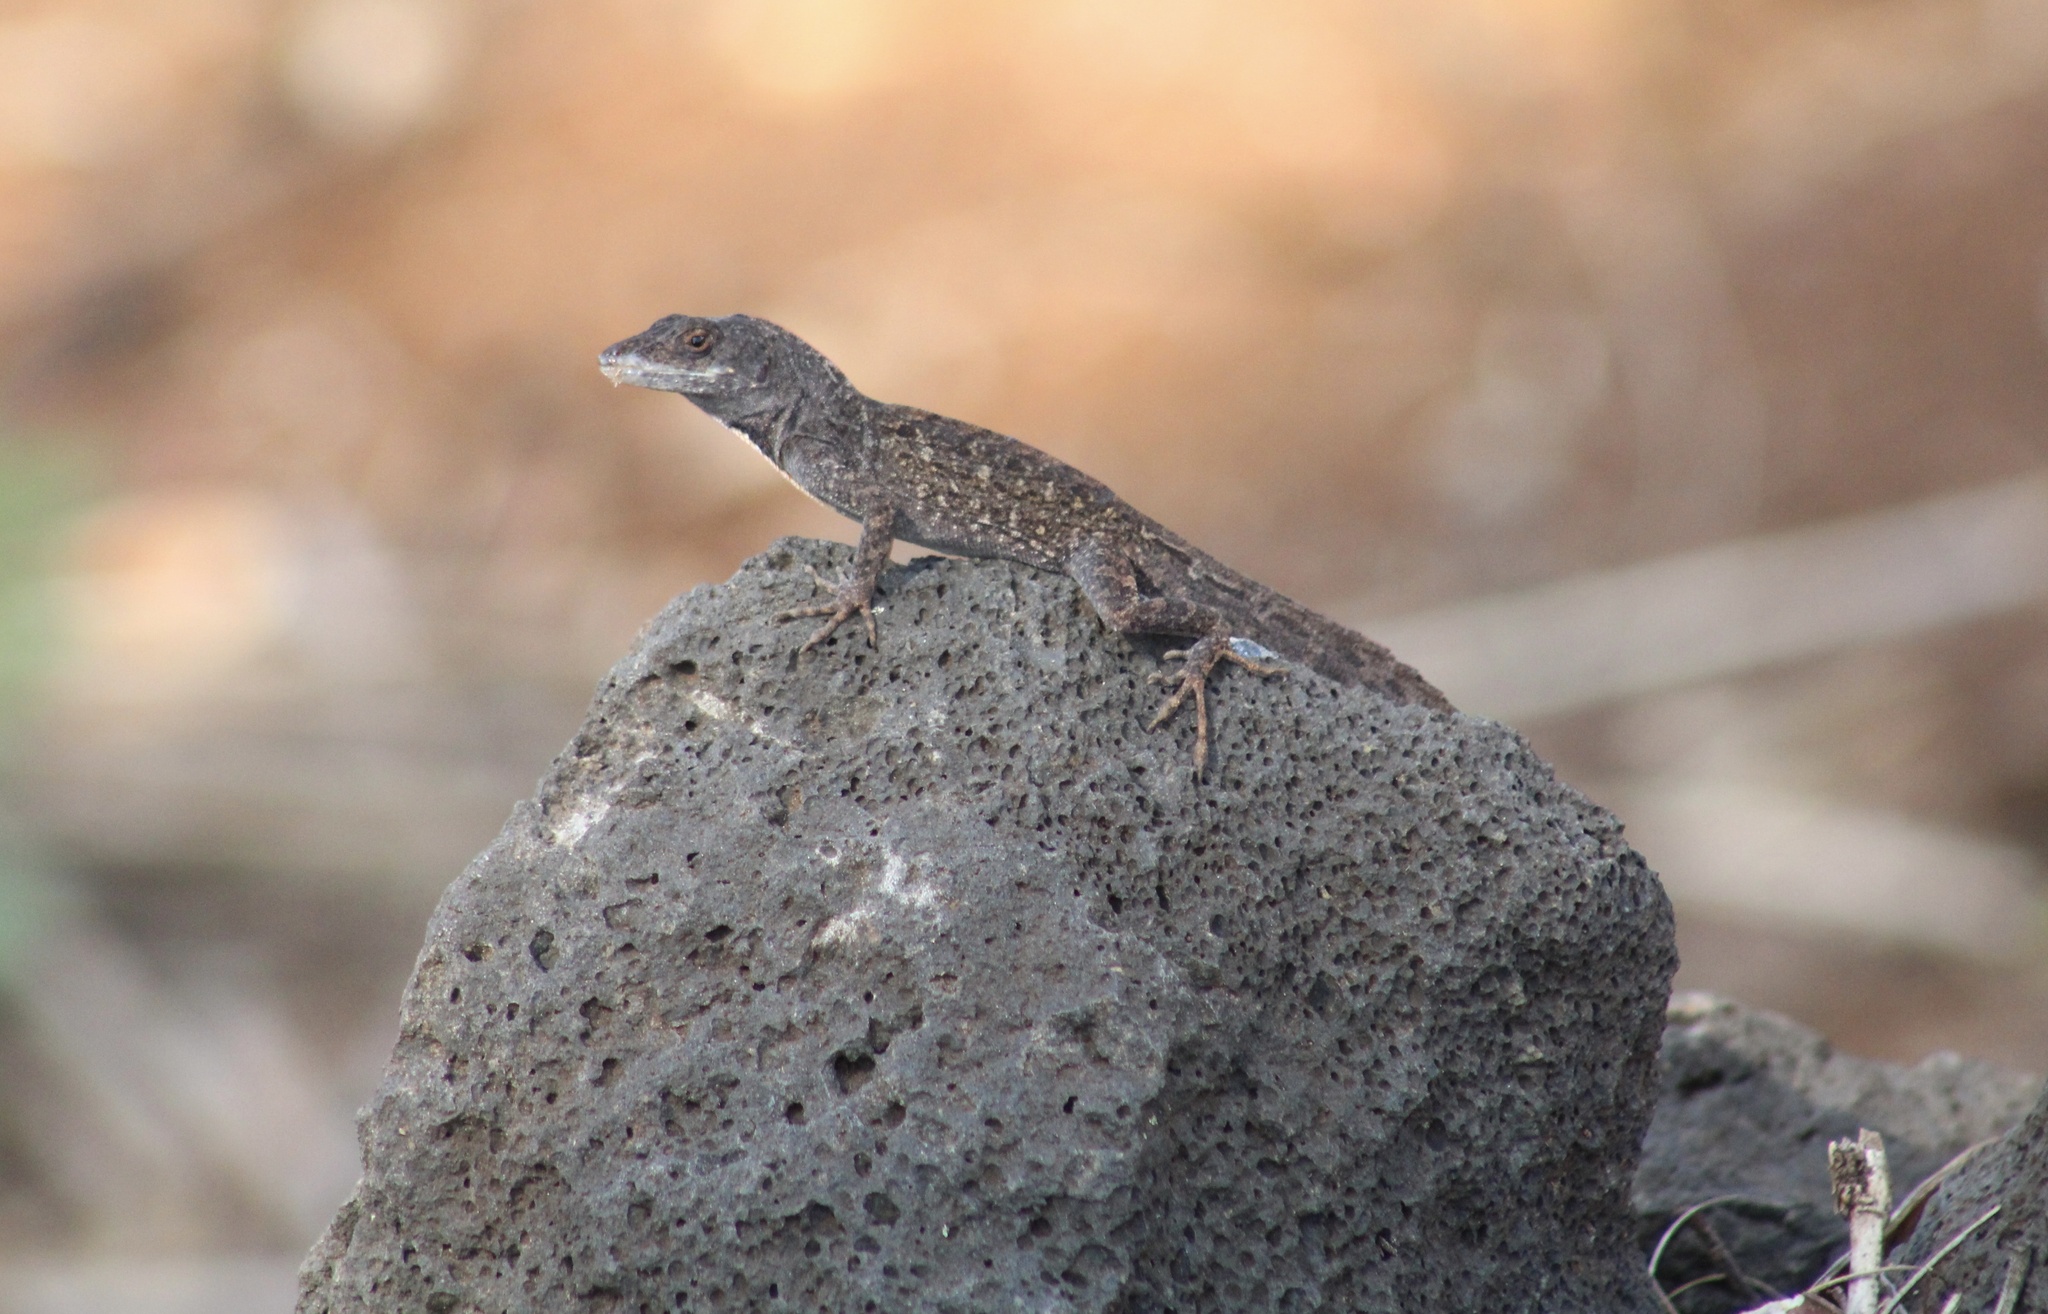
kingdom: Animalia
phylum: Chordata
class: Squamata
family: Dactyloidae
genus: Anolis
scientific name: Anolis sagrei
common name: Brown anole
